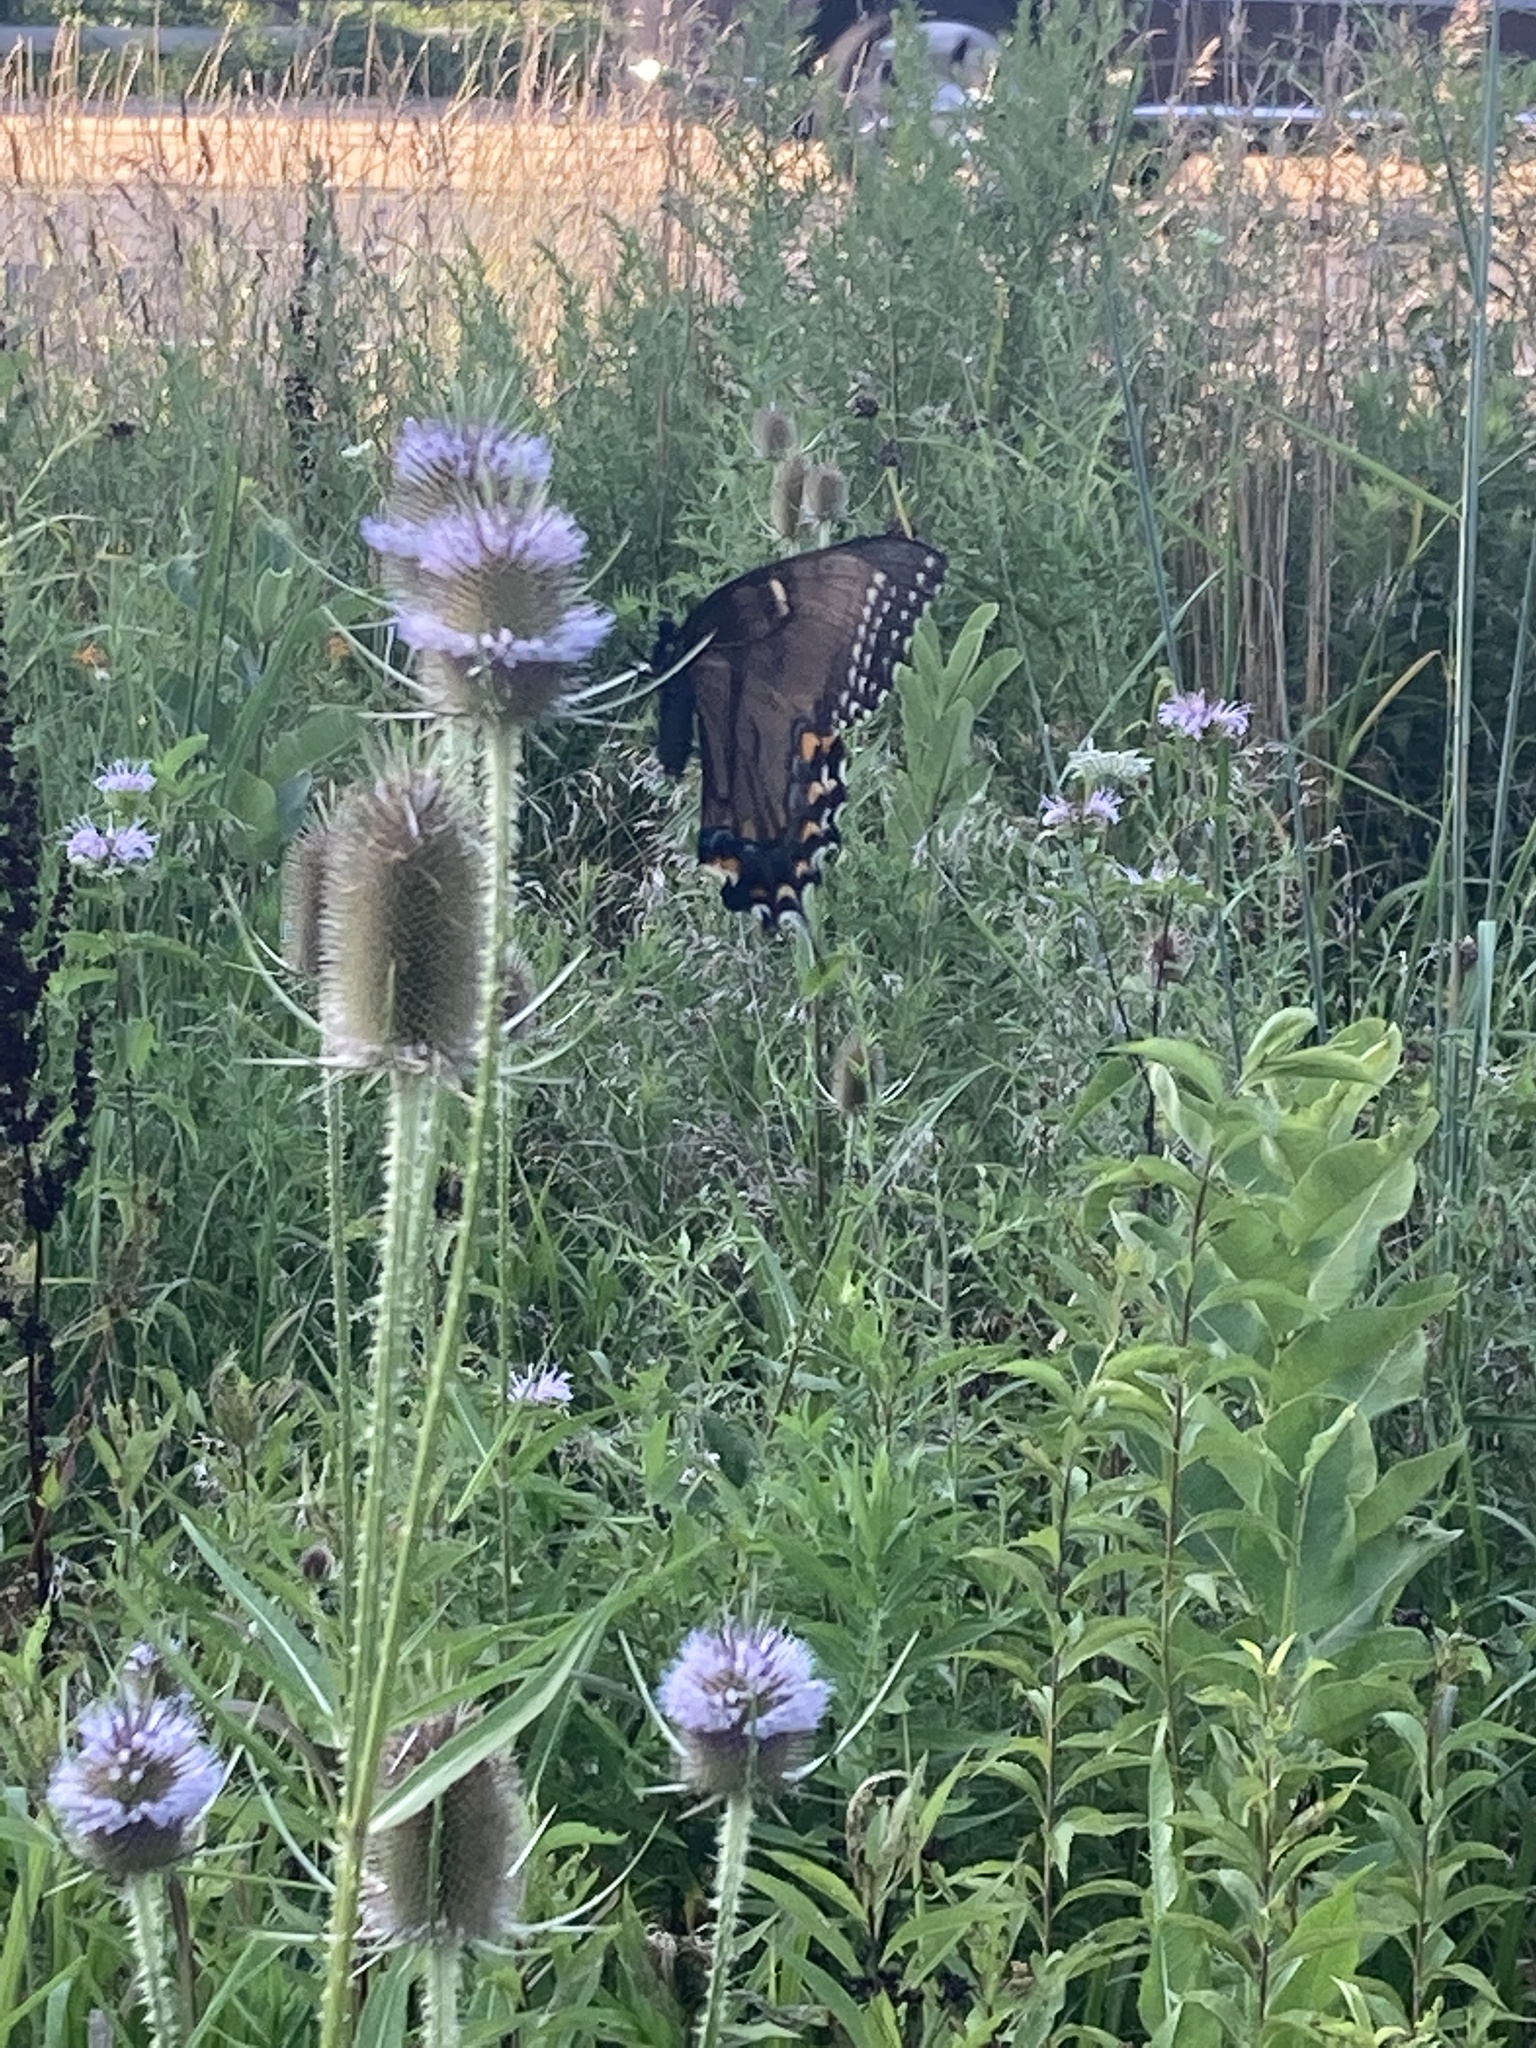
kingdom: Animalia
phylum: Arthropoda
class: Insecta
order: Lepidoptera
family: Papilionidae
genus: Papilio
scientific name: Papilio glaucus
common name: Tiger swallowtail
